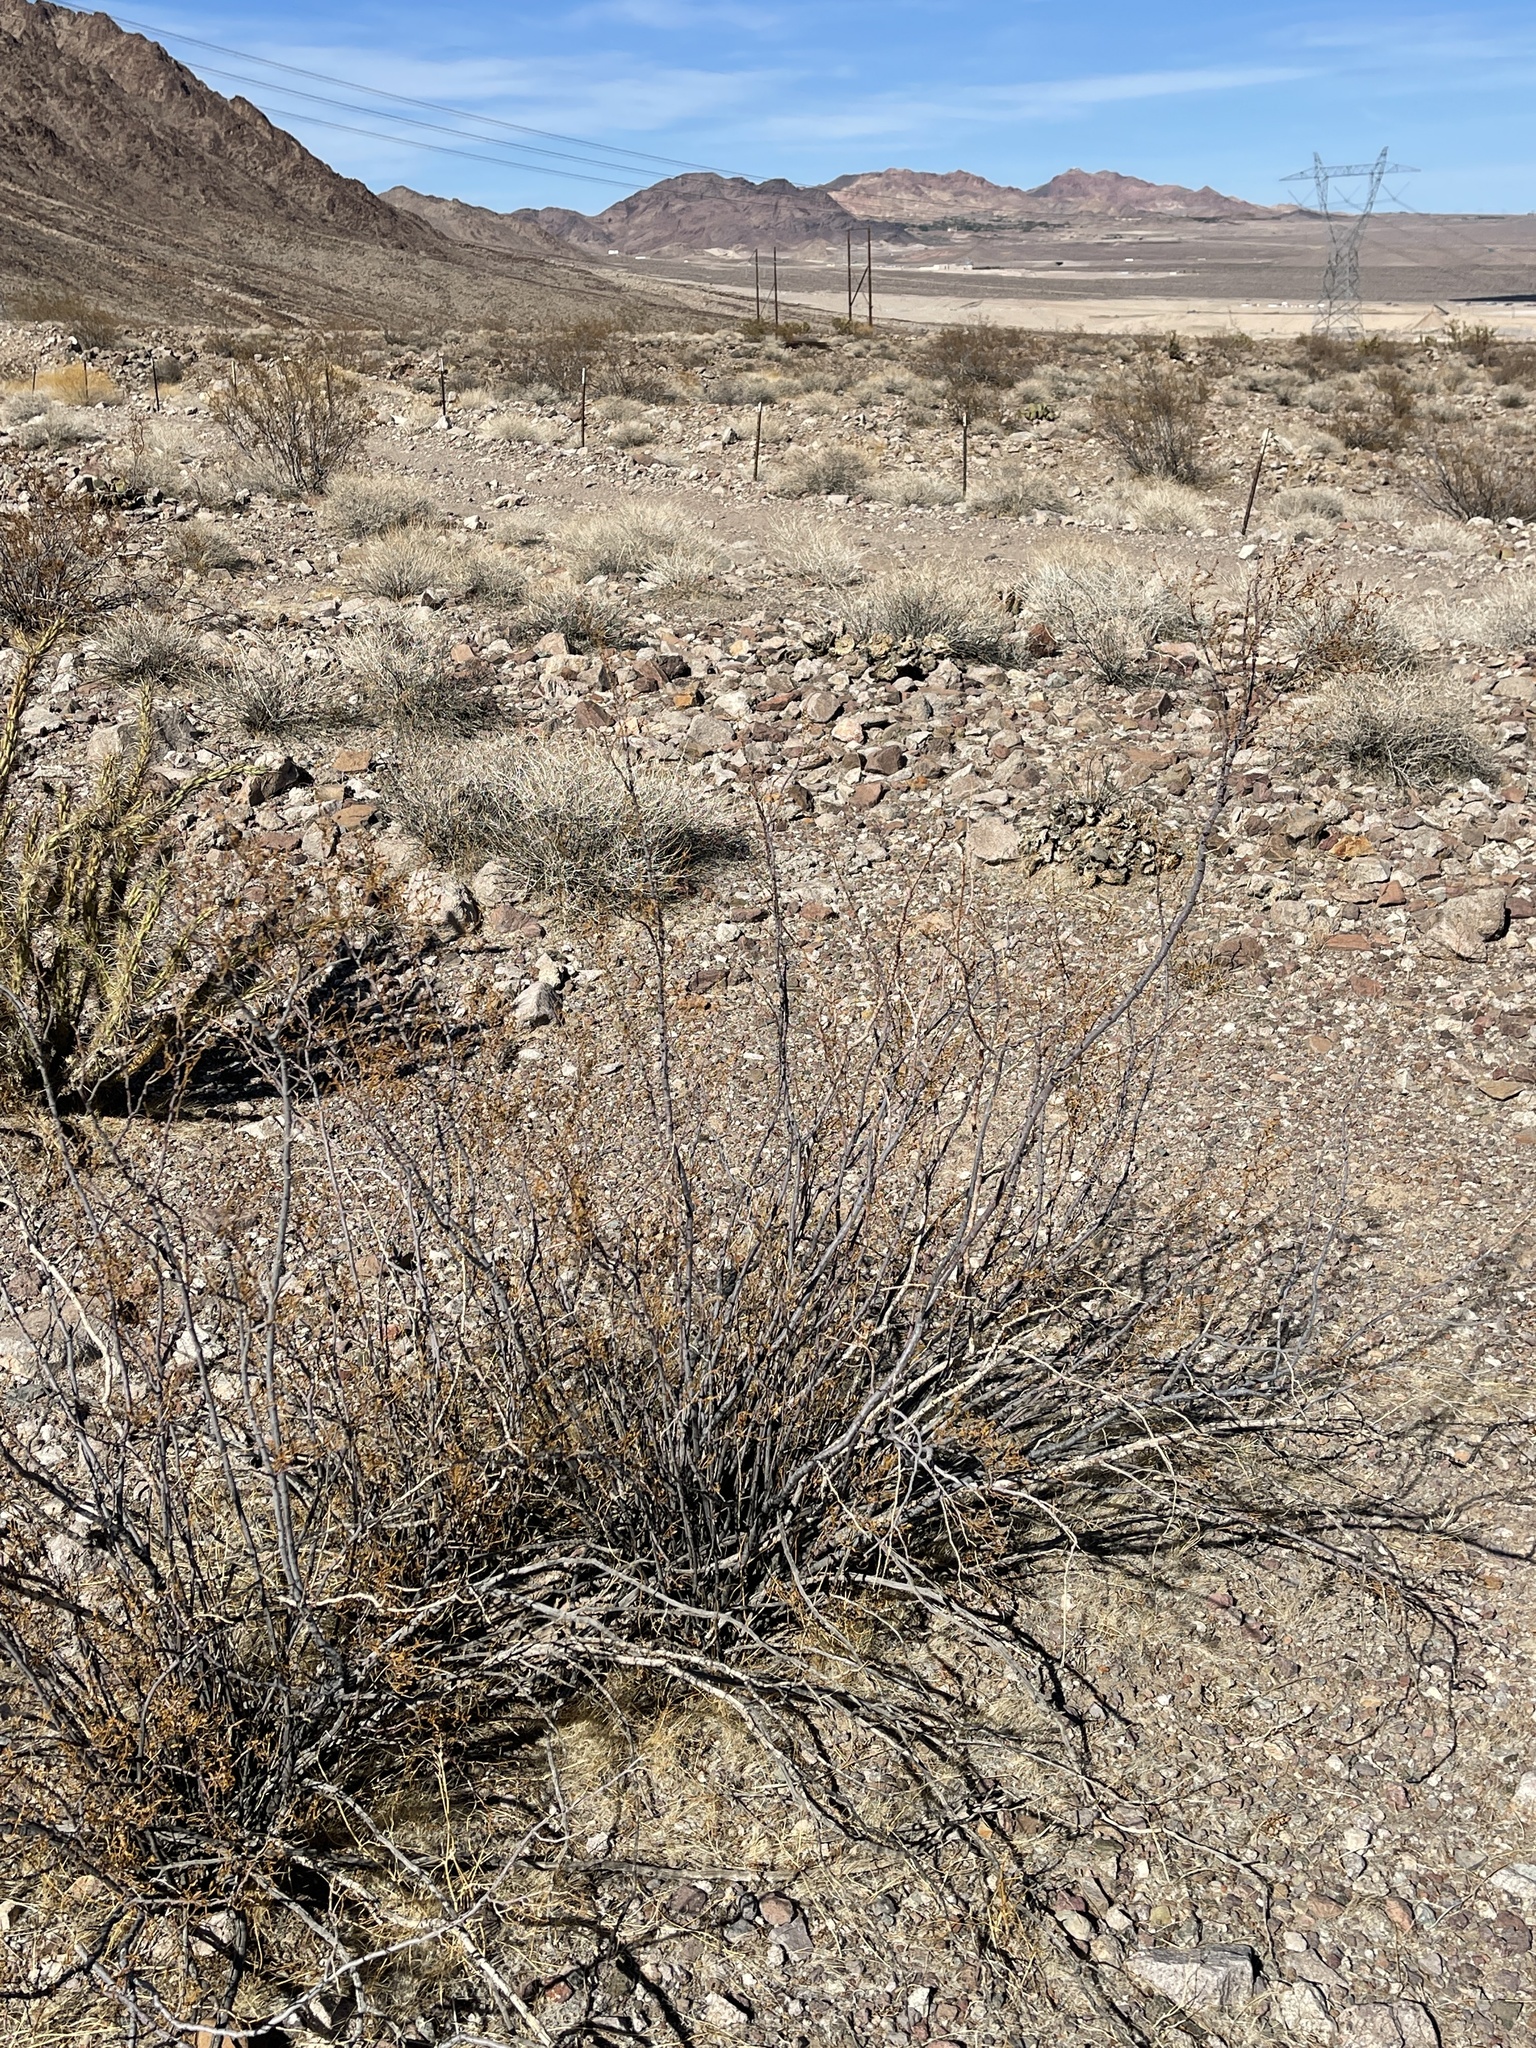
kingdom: Plantae
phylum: Tracheophyta
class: Magnoliopsida
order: Zygophyllales
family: Zygophyllaceae
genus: Larrea
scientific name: Larrea tridentata
